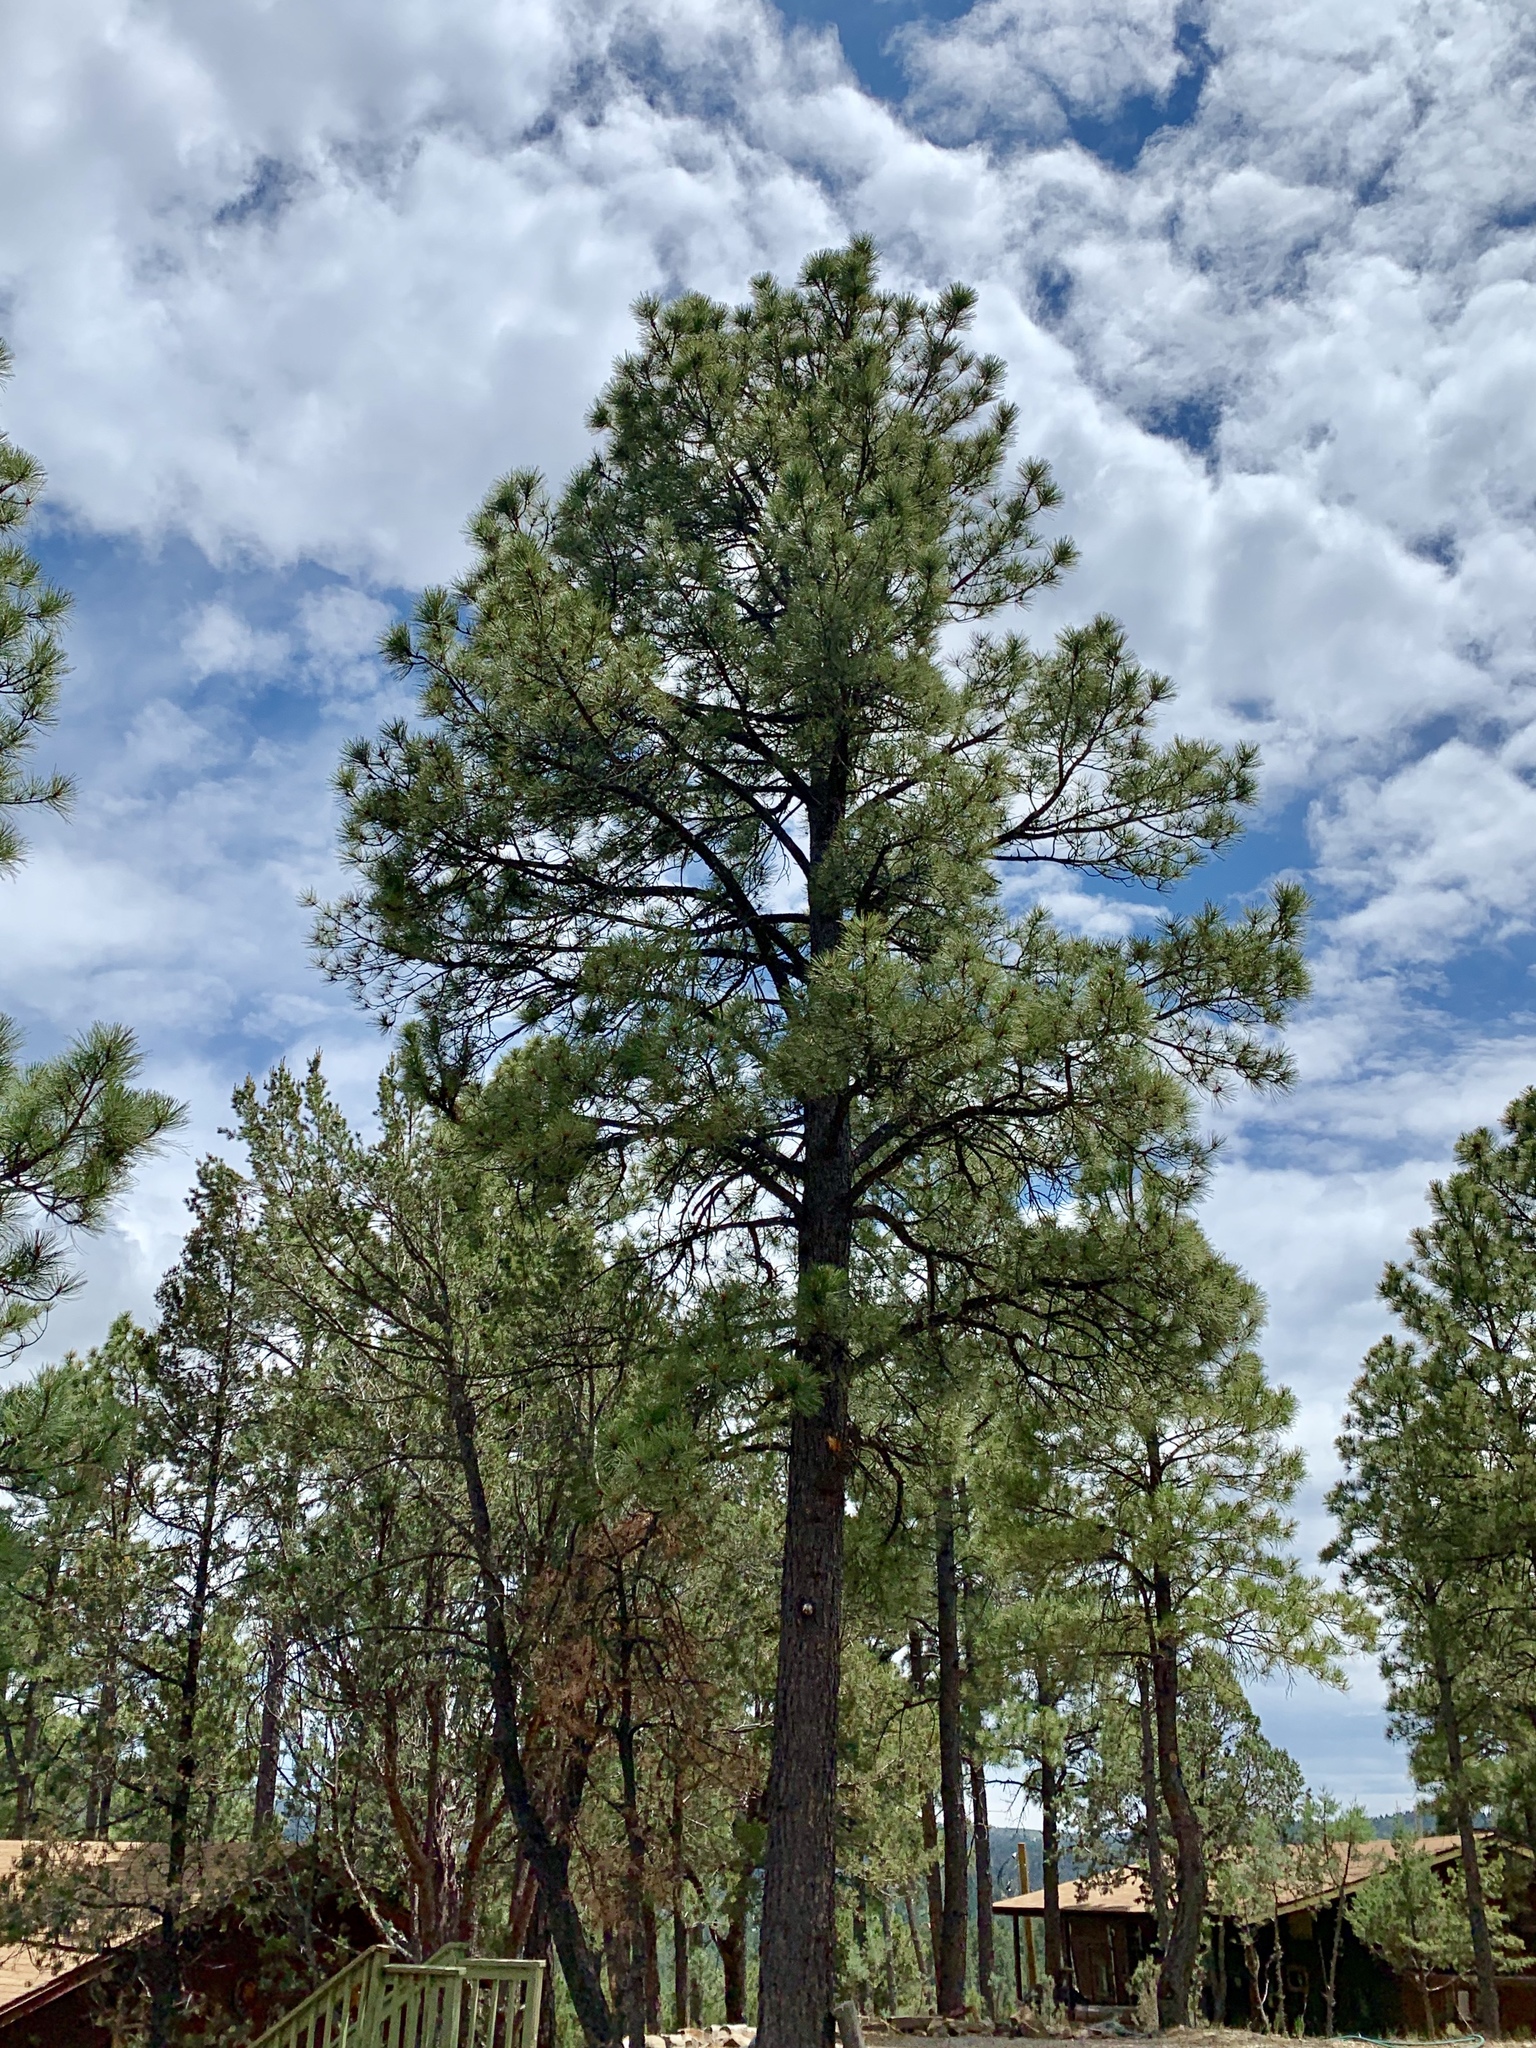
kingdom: Plantae
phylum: Tracheophyta
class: Pinopsida
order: Pinales
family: Pinaceae
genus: Pinus
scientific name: Pinus ponderosa
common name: Western yellow-pine
